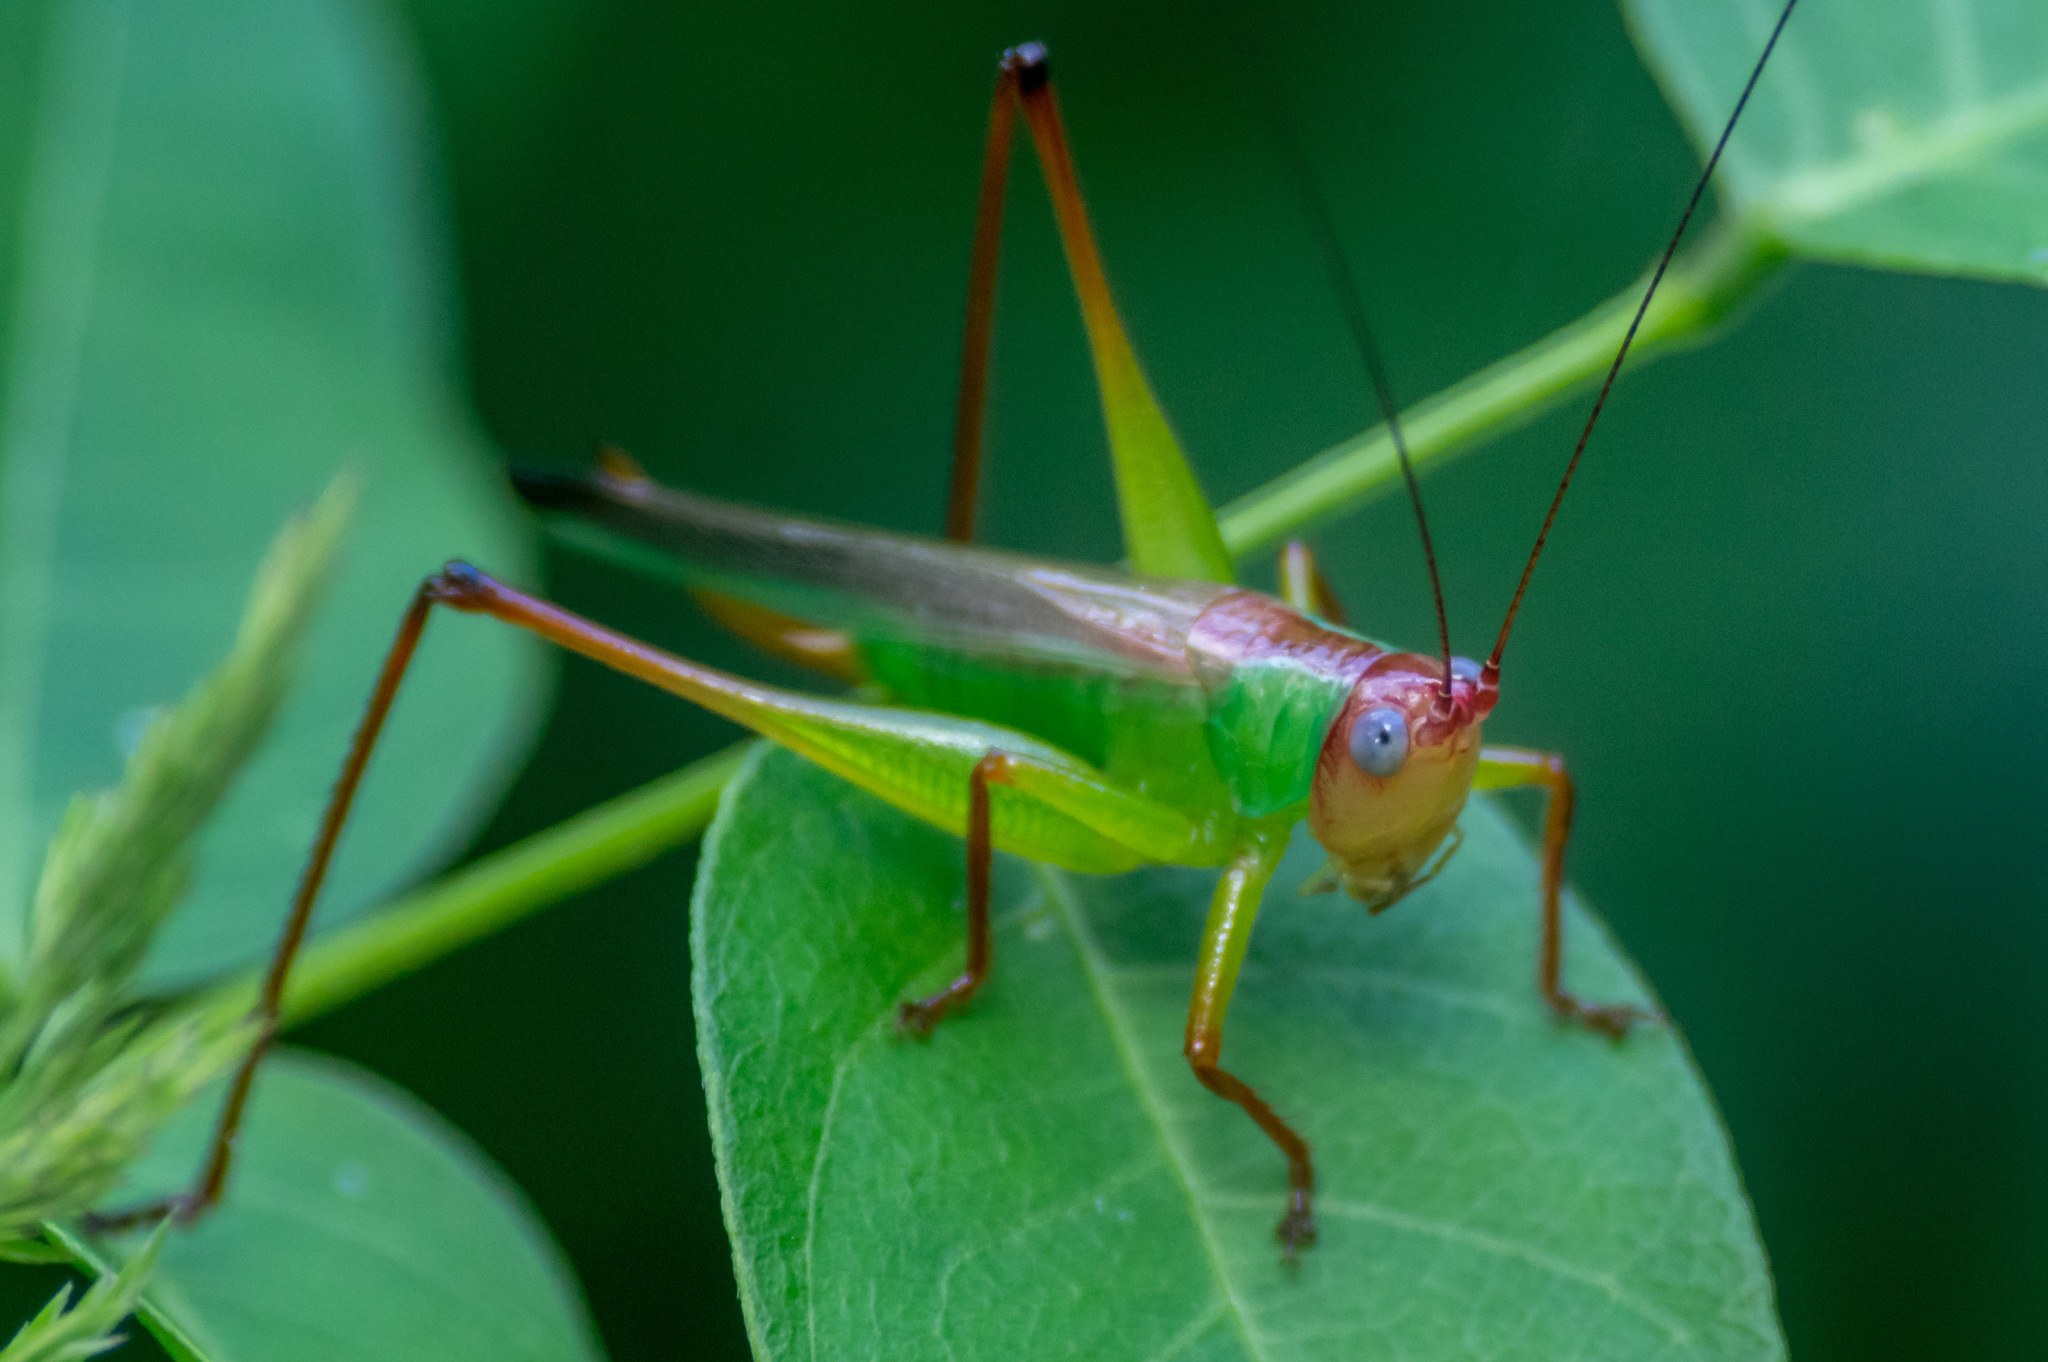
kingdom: Animalia
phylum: Arthropoda
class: Insecta
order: Orthoptera
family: Tettigoniidae
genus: Orchelimum
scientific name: Orchelimum pulchellum
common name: Handsome meadow katydid
